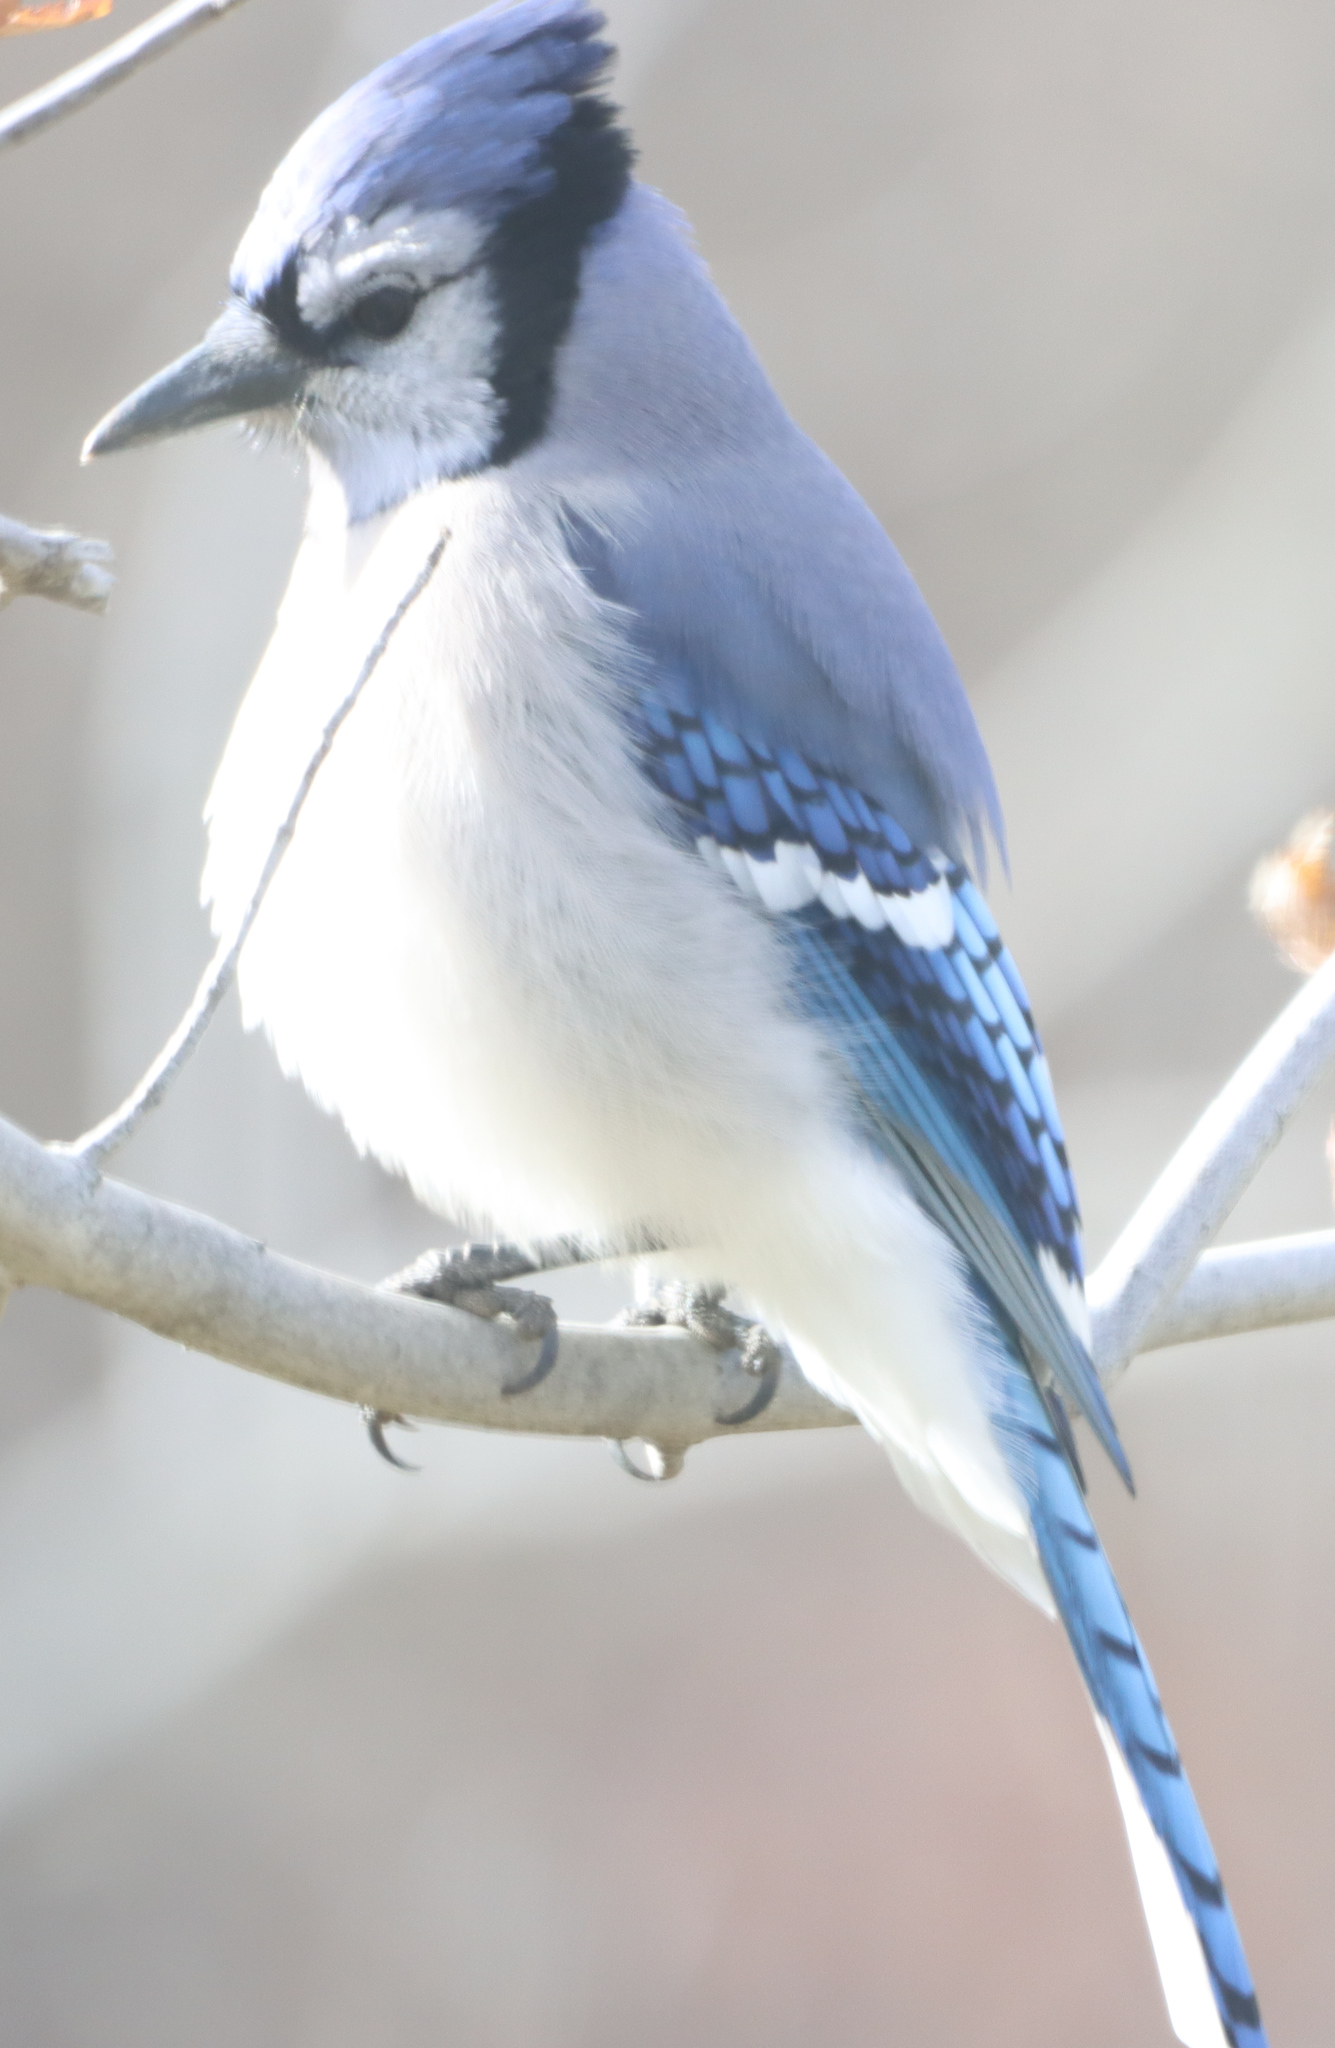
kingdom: Animalia
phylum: Chordata
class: Aves
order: Passeriformes
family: Corvidae
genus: Cyanocitta
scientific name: Cyanocitta cristata
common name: Blue jay
